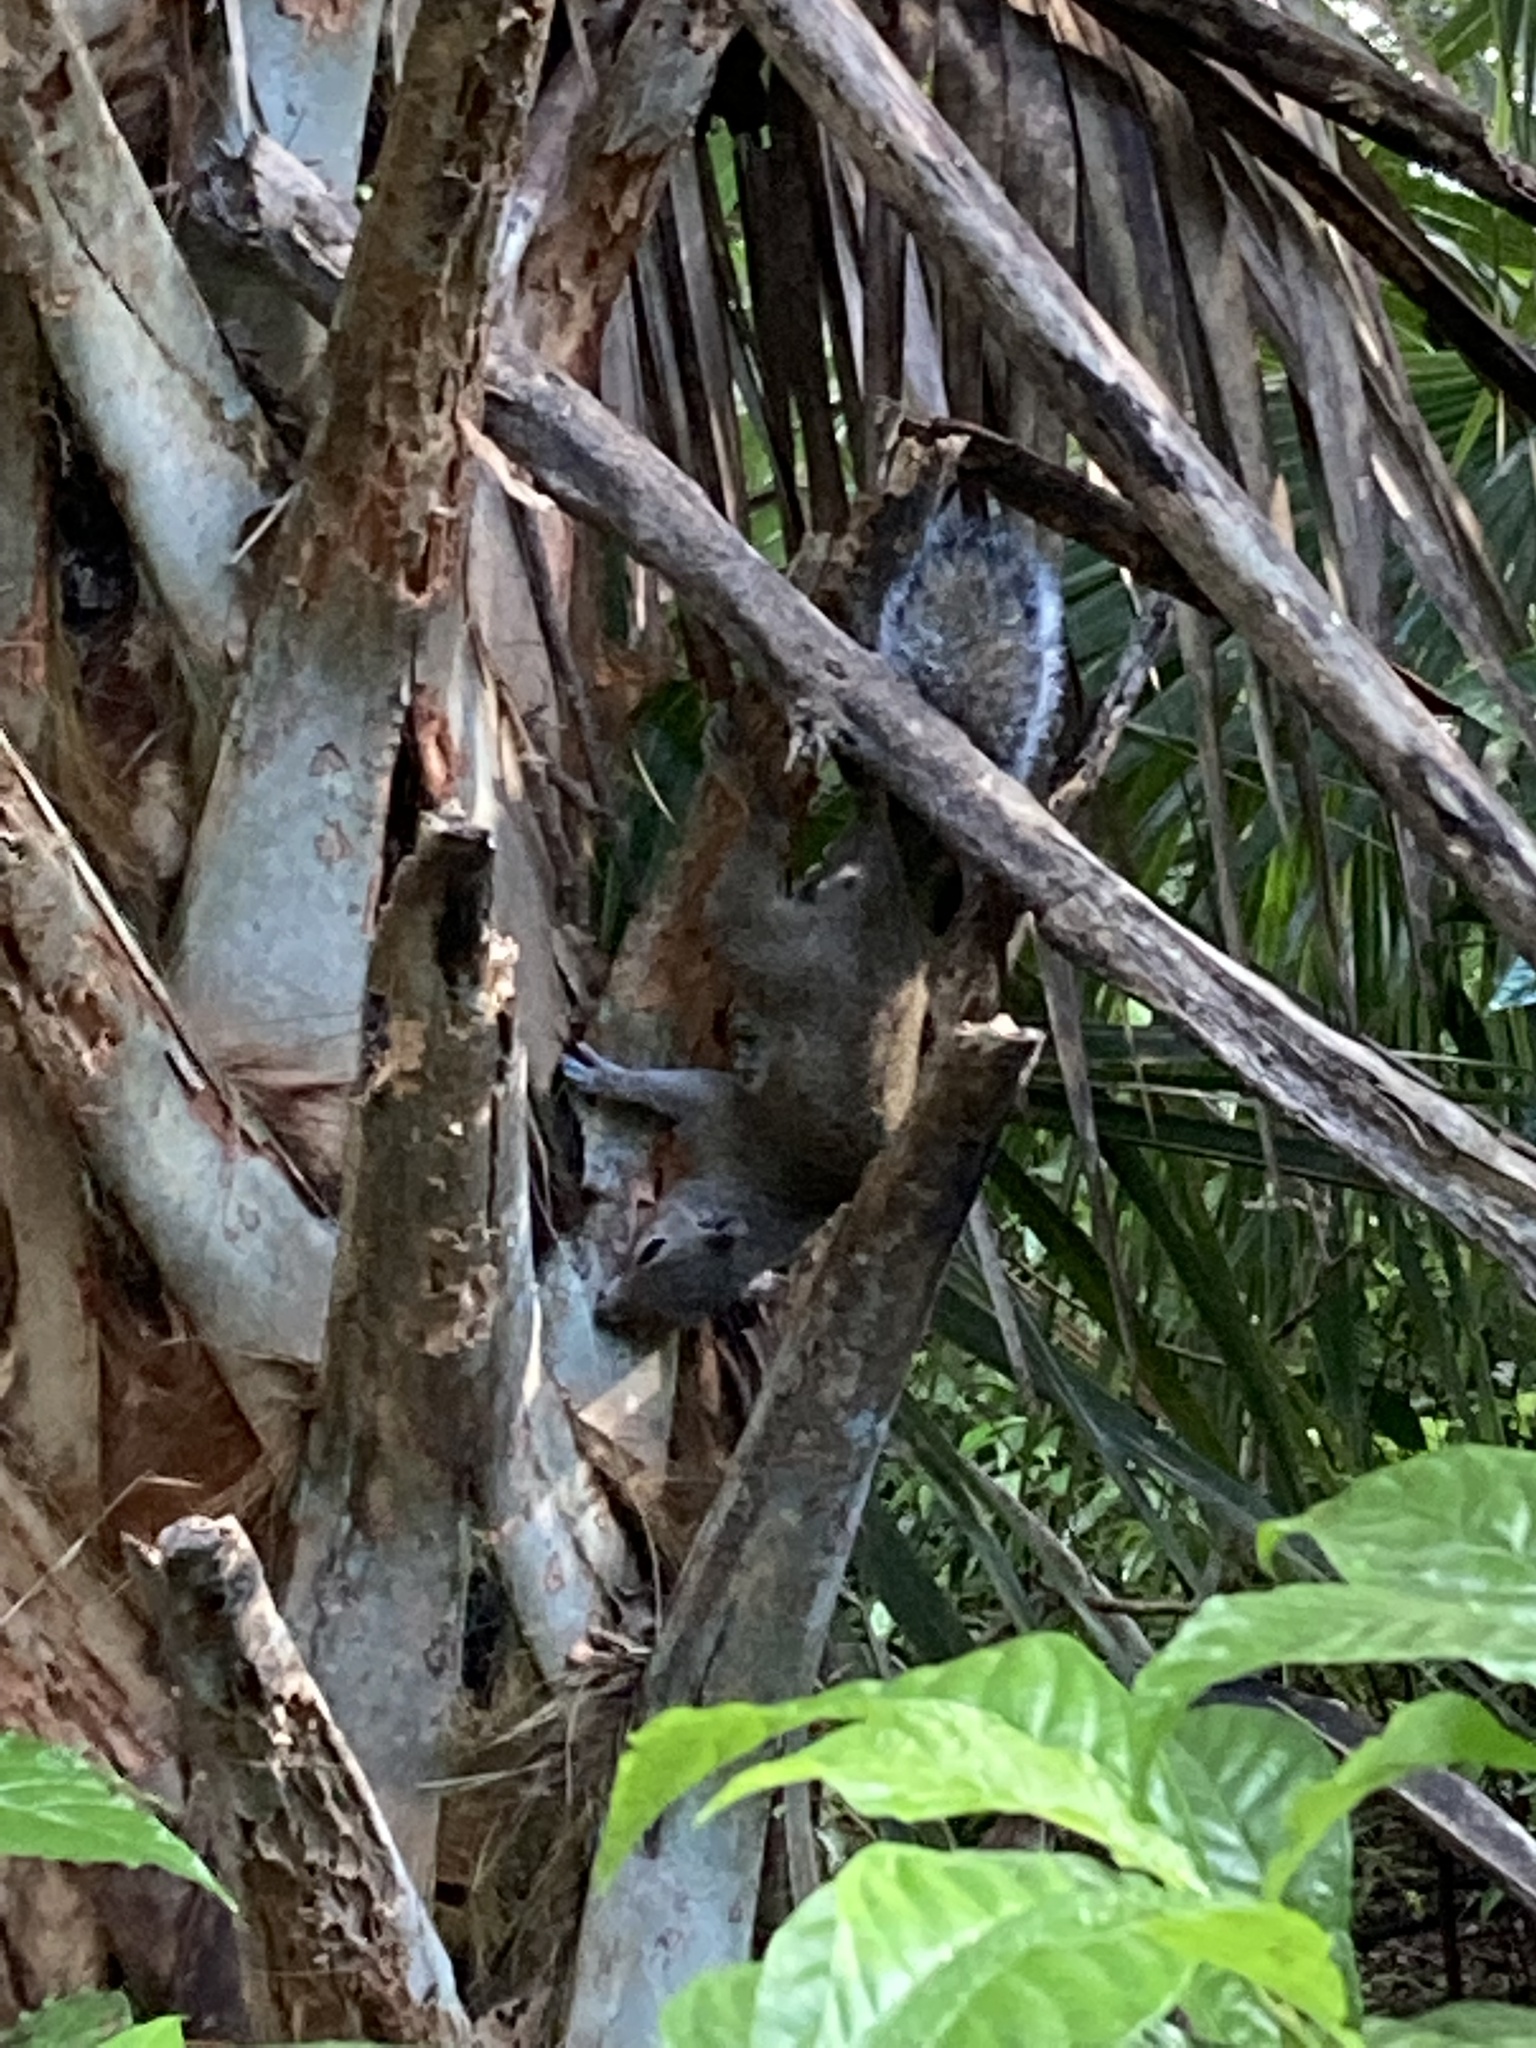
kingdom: Animalia
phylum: Chordata
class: Mammalia
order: Rodentia
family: Sciuridae
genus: Sciurus
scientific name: Sciurus carolinensis
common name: Eastern gray squirrel
